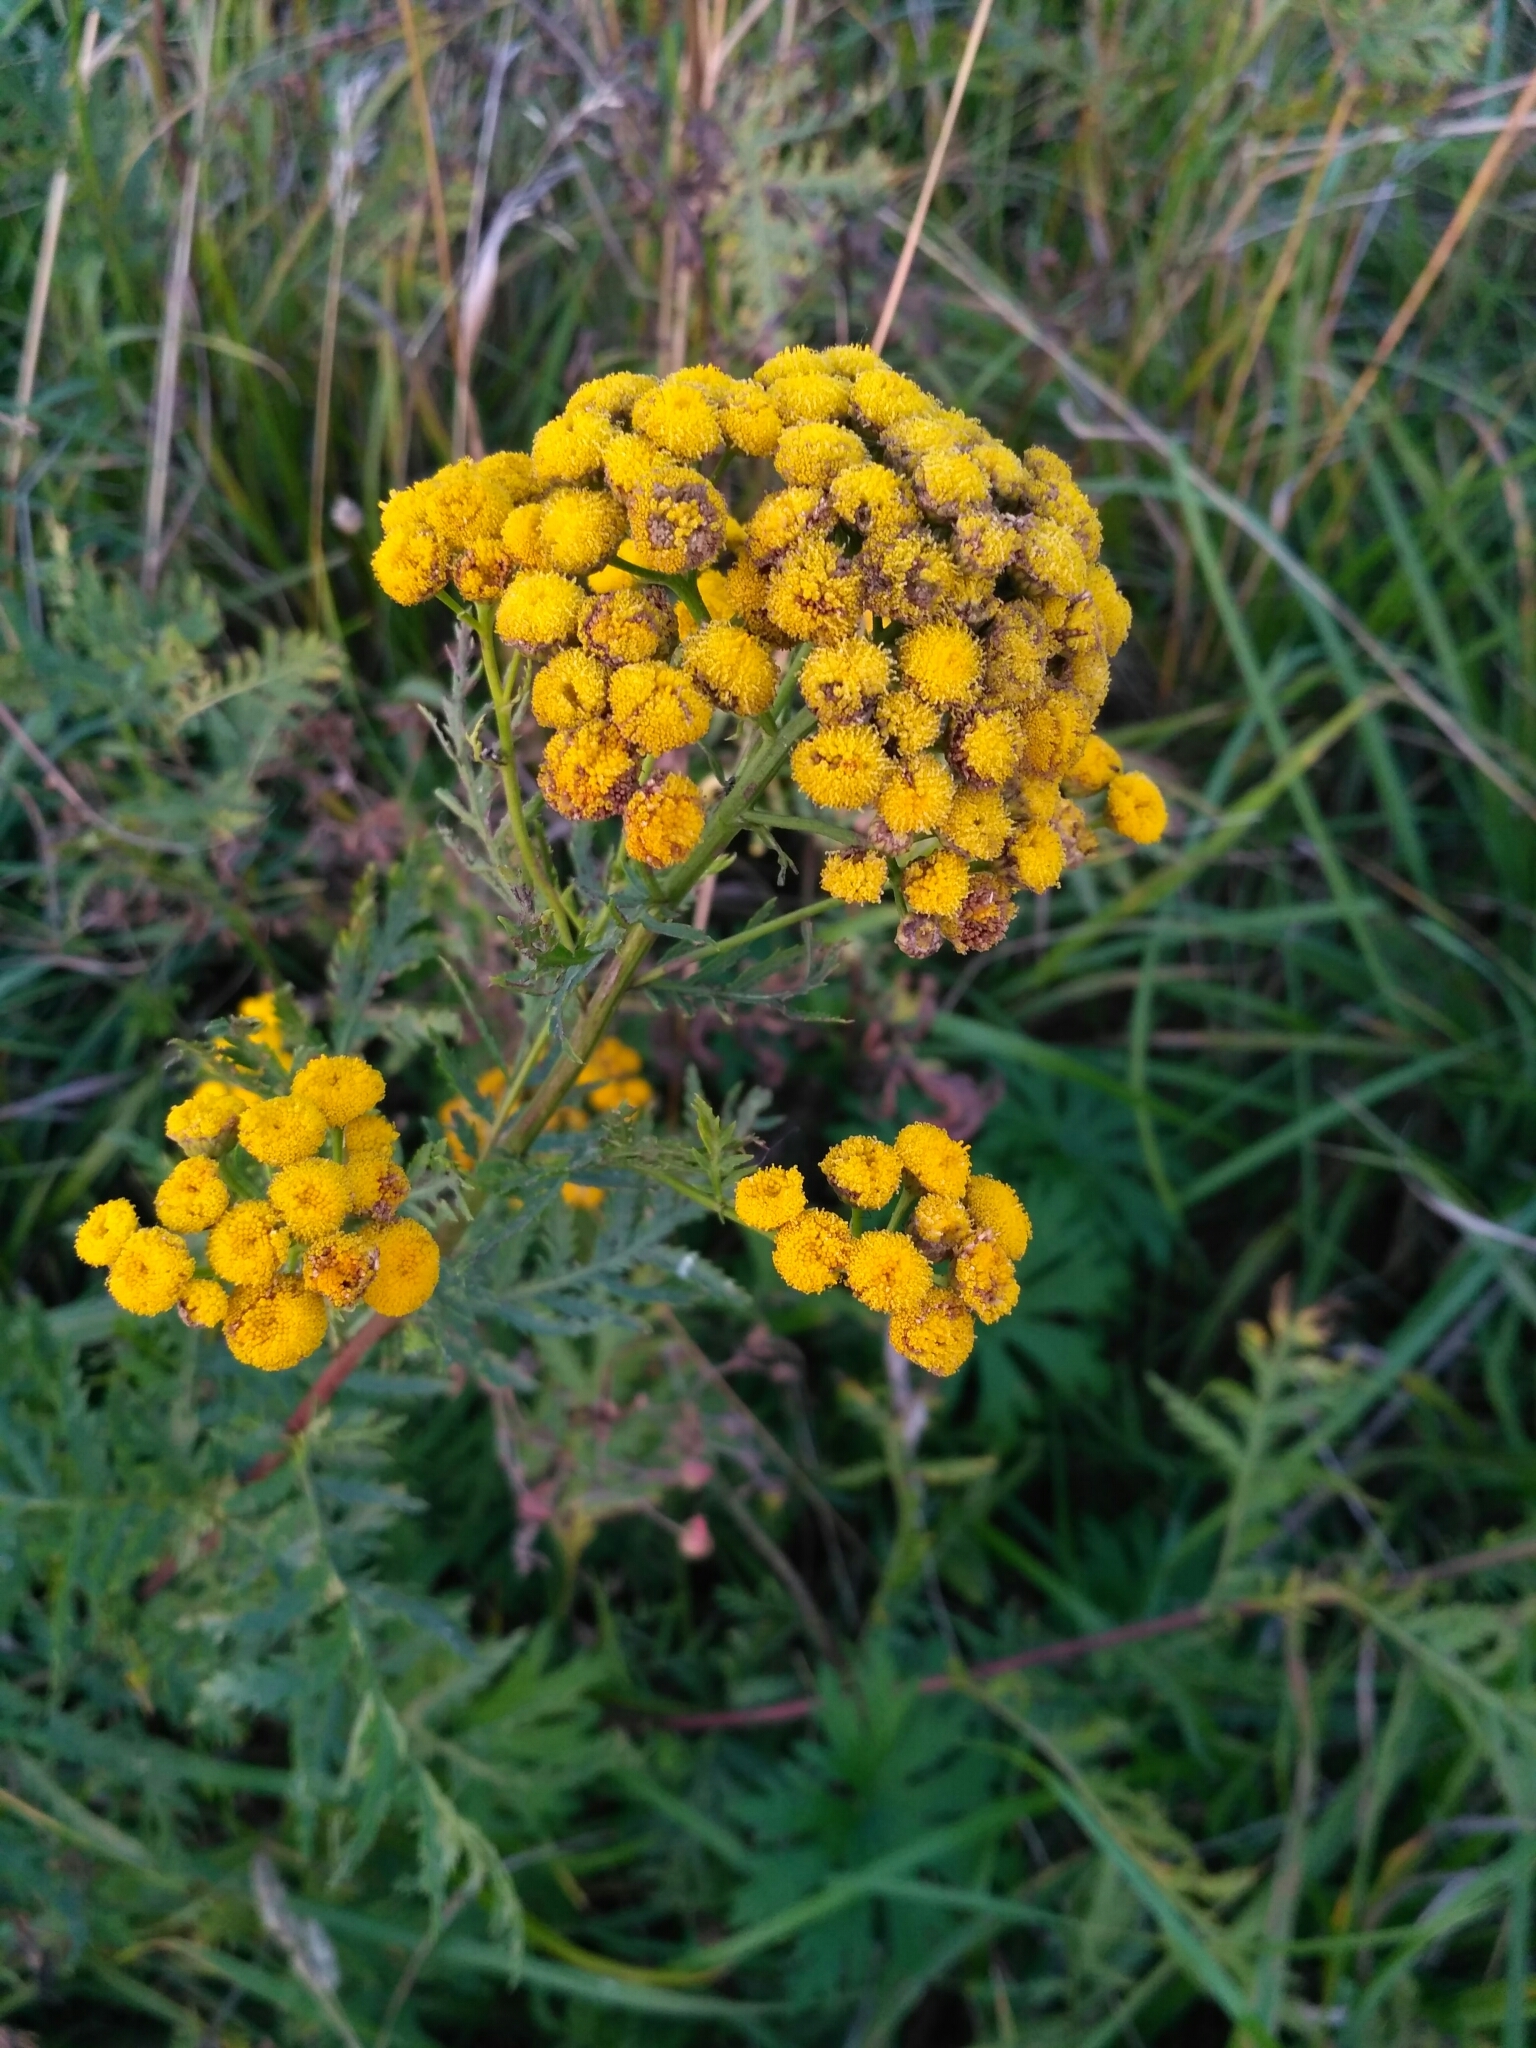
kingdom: Plantae
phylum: Tracheophyta
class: Magnoliopsida
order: Asterales
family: Asteraceae
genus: Tanacetum
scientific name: Tanacetum vulgare
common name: Common tansy
